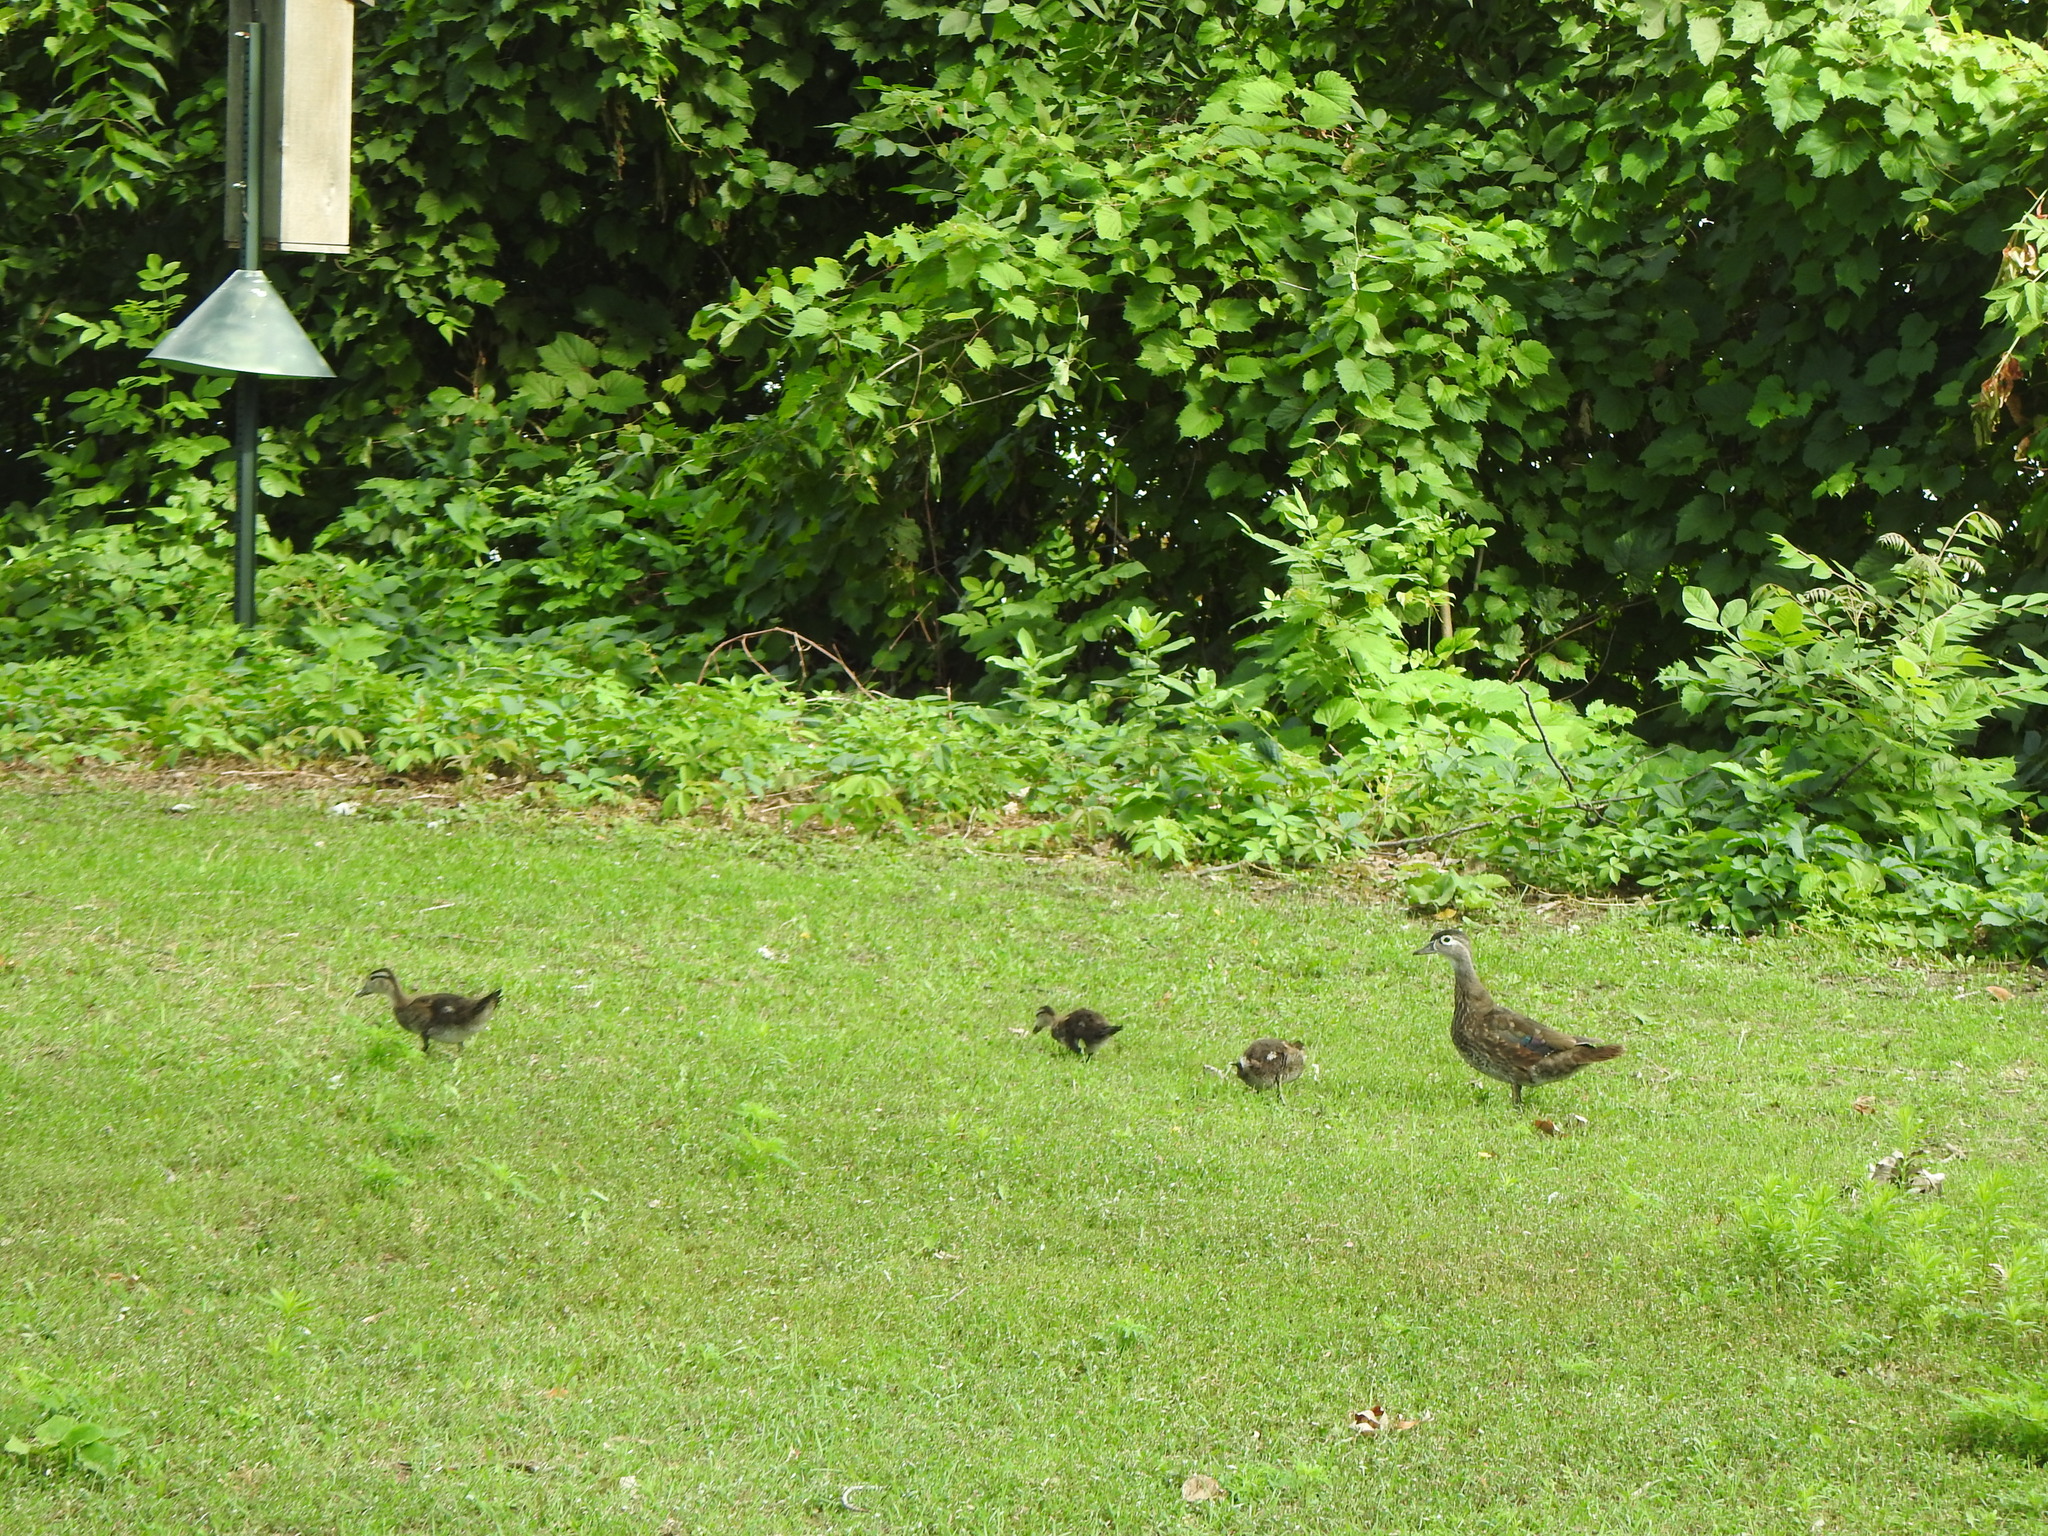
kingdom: Animalia
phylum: Chordata
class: Aves
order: Anseriformes
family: Anatidae
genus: Aix
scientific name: Aix sponsa
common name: Wood duck
